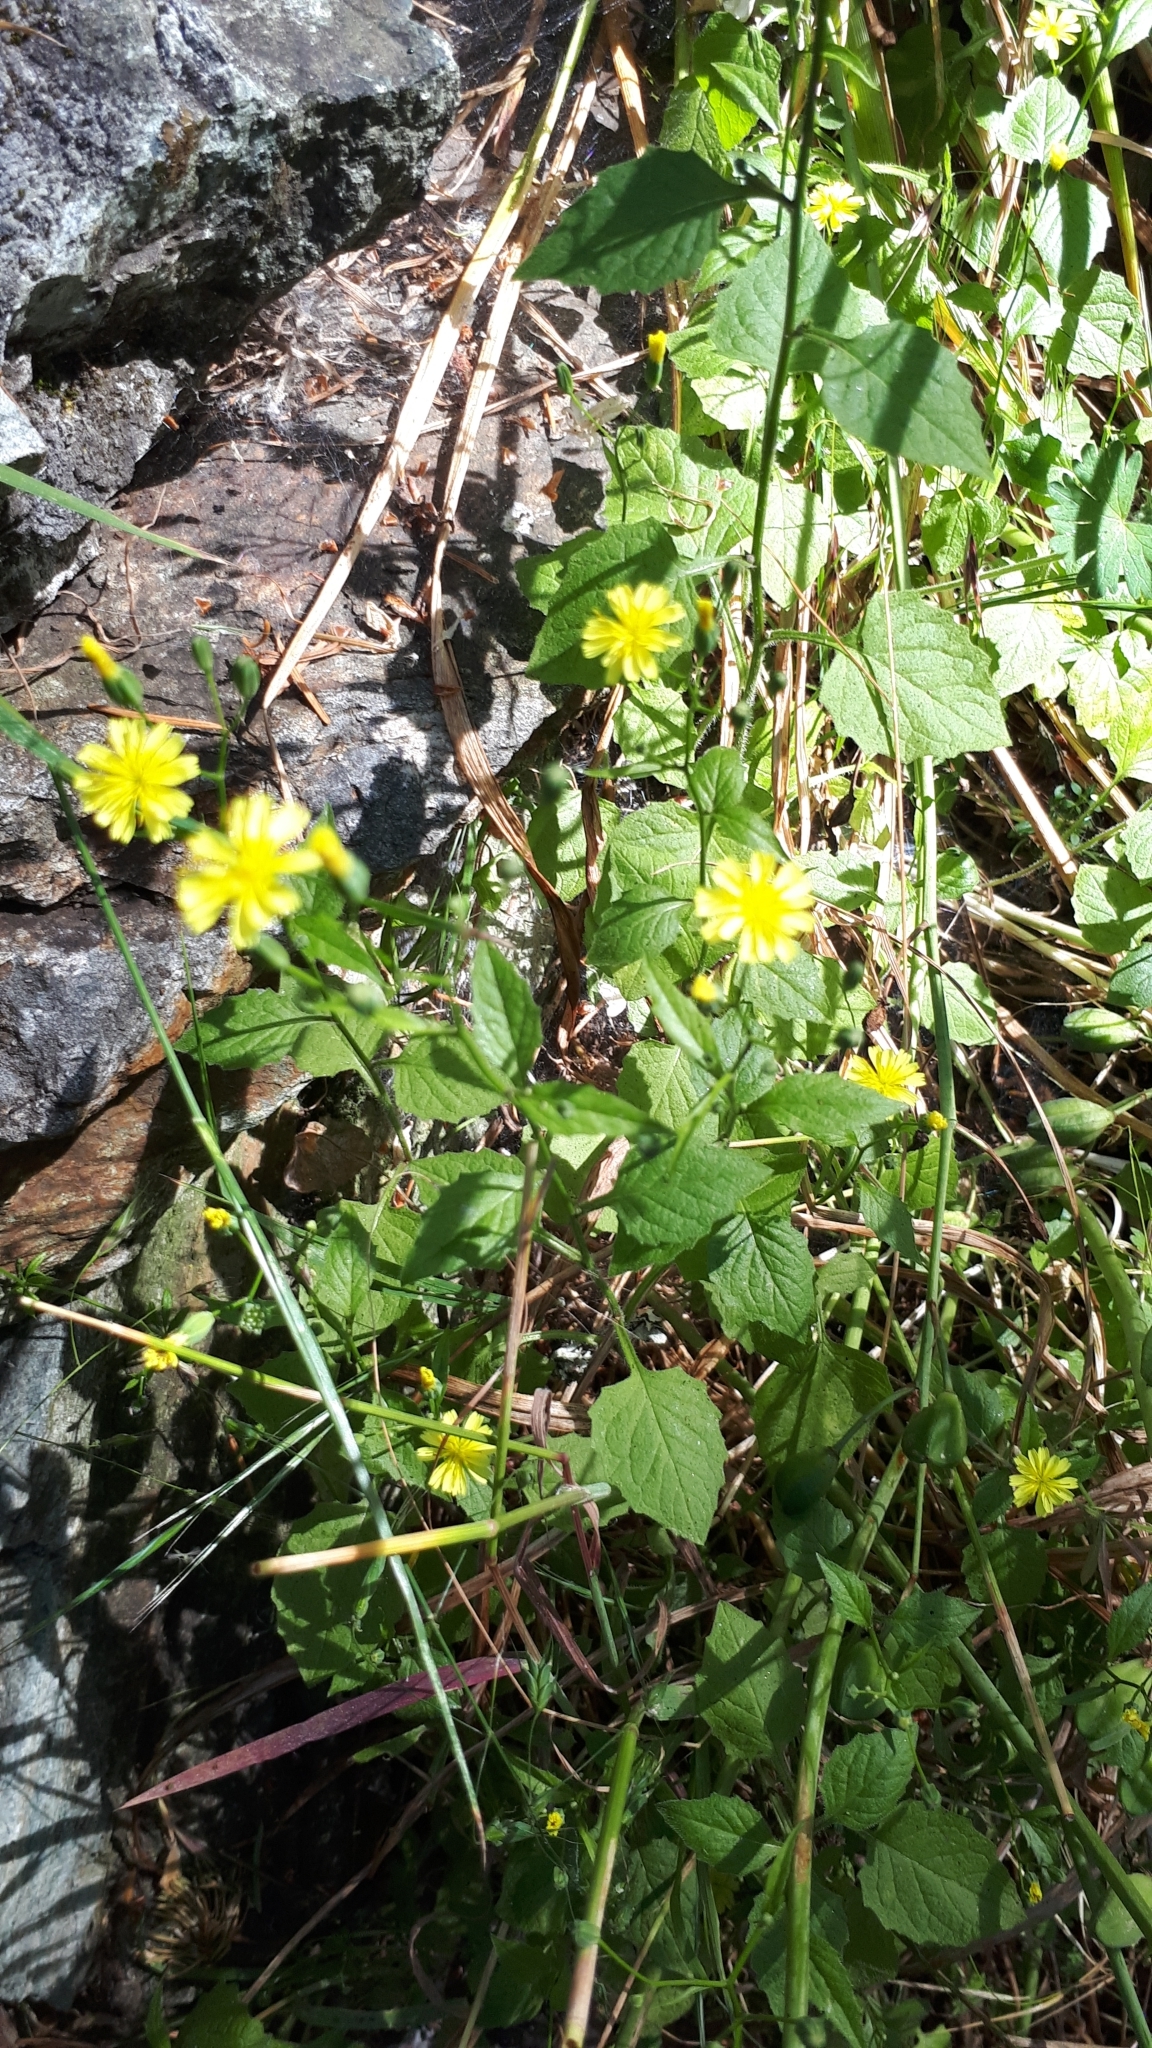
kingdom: Plantae
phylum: Tracheophyta
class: Magnoliopsida
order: Asterales
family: Asteraceae
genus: Lapsana
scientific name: Lapsana communis
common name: Nipplewort
